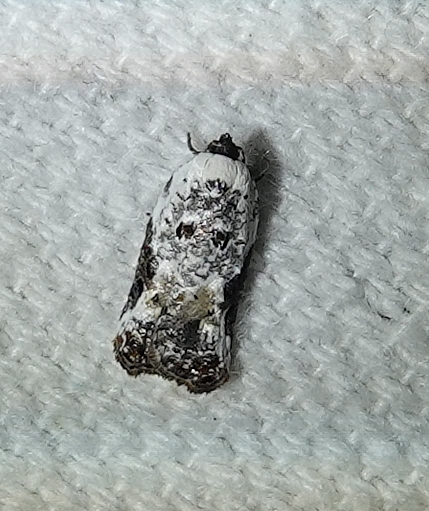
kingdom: Animalia
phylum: Arthropoda
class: Insecta
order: Lepidoptera
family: Tortricidae
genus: Acleris
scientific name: Acleris nivisellana
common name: Snowy-shouldered acleris moth
